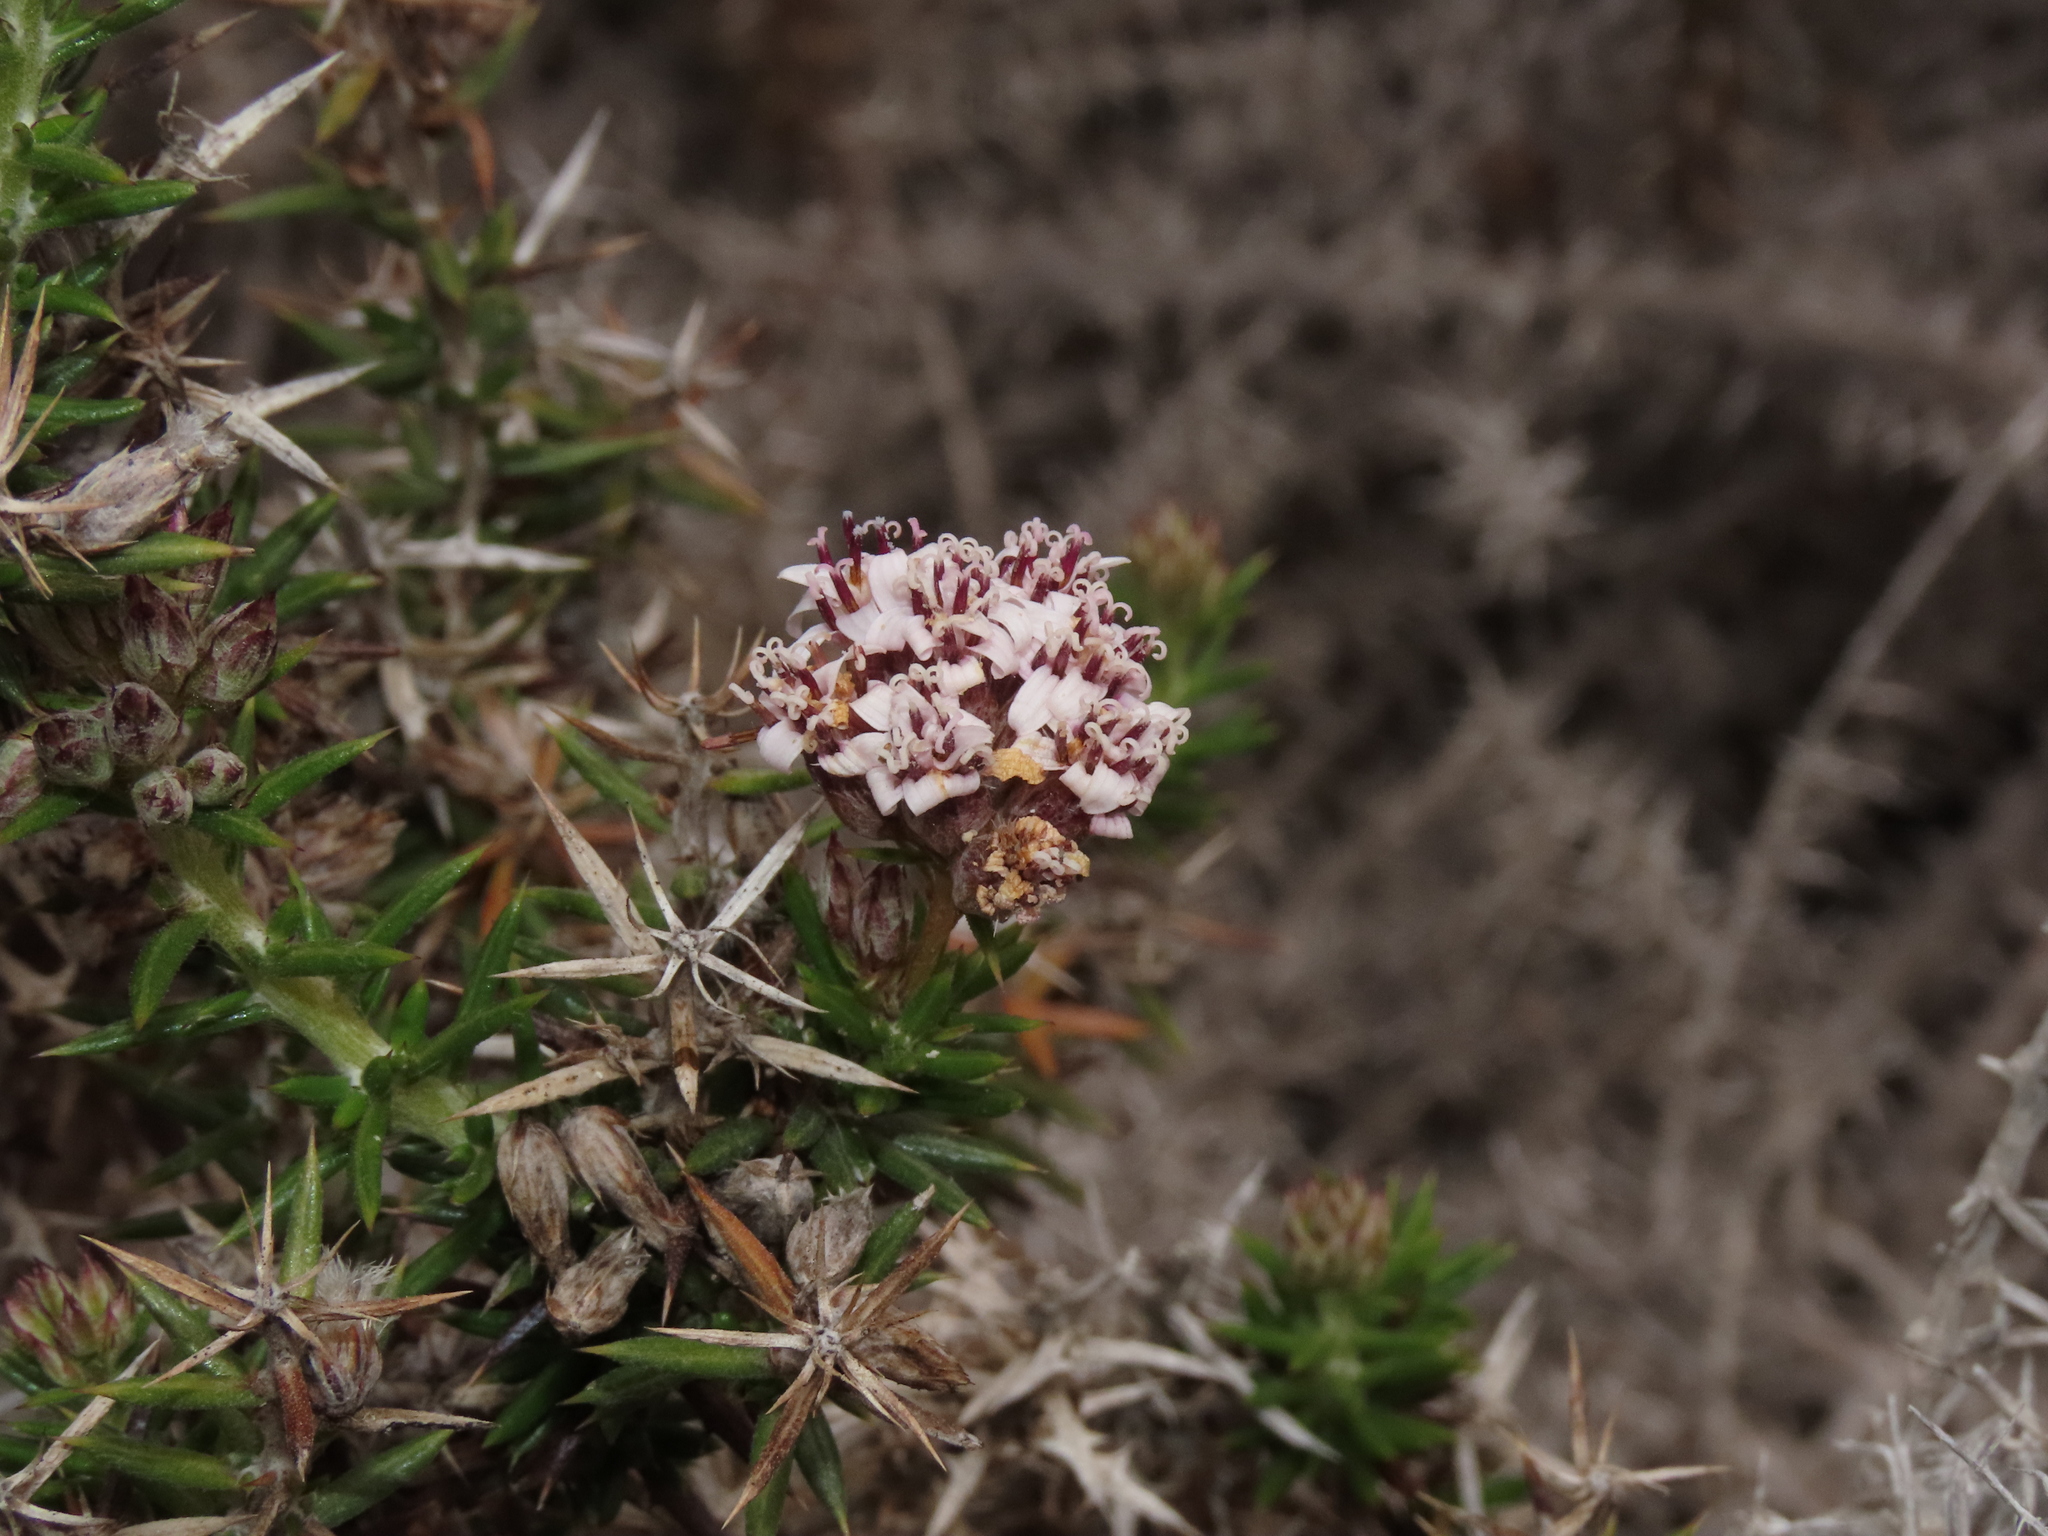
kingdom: Plantae
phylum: Tracheophyta
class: Magnoliopsida
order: Asterales
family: Asteraceae
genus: Oxyphyllum
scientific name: Oxyphyllum ulicinum
